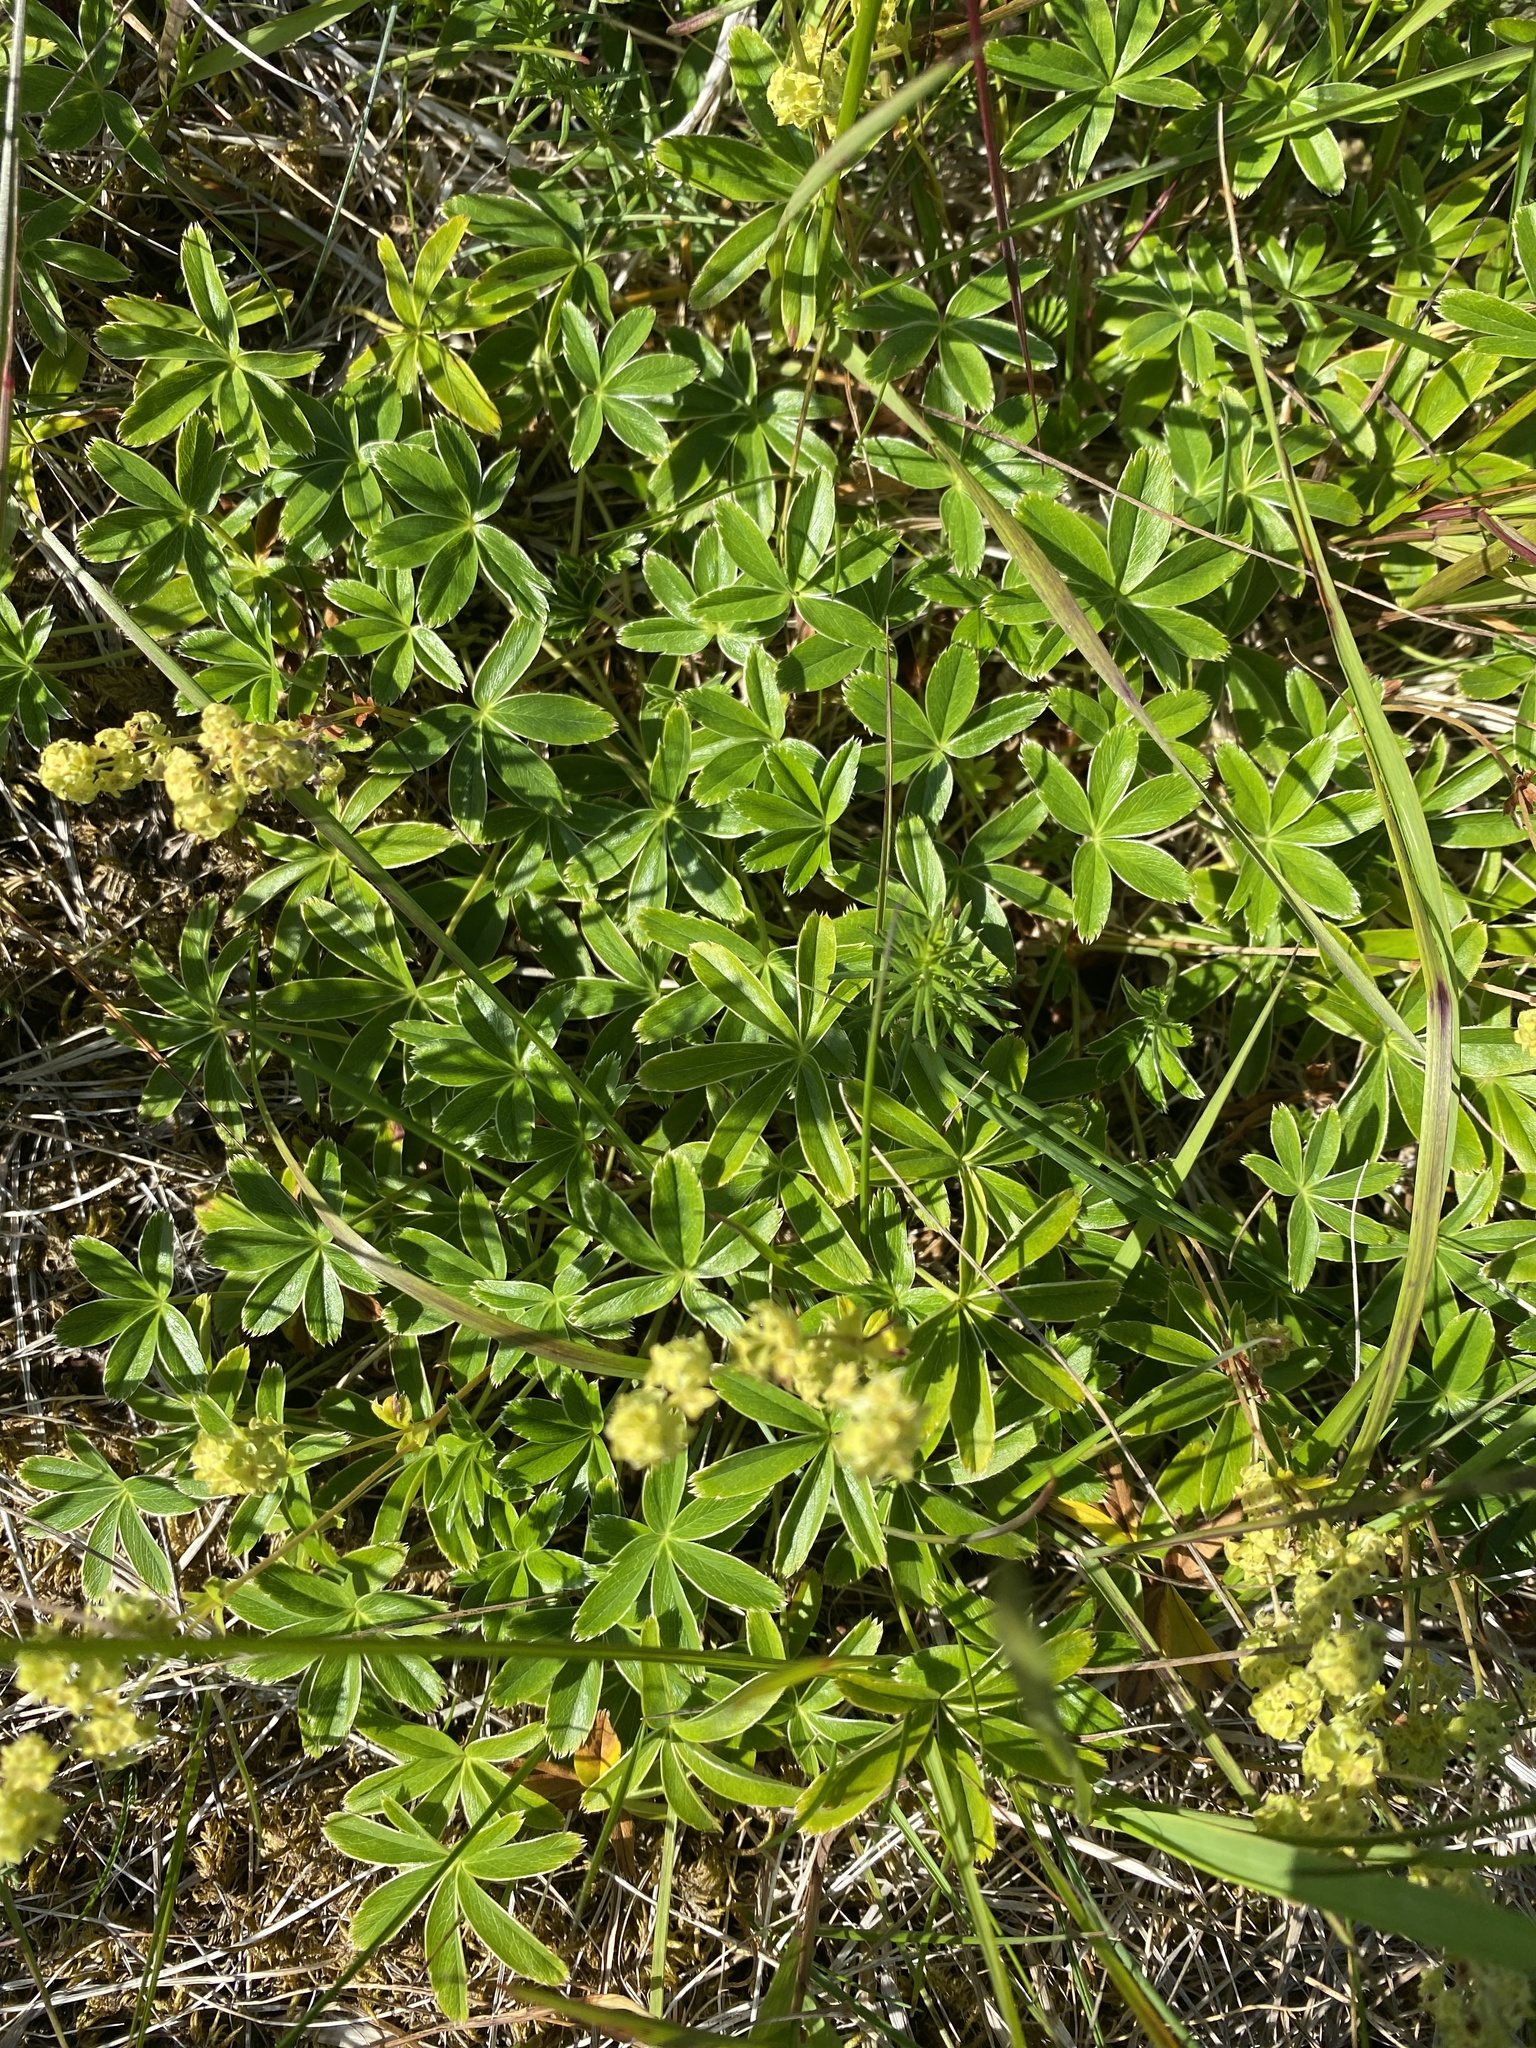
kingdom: Plantae
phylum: Tracheophyta
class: Magnoliopsida
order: Rosales
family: Rosaceae
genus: Alchemilla
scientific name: Alchemilla alpina
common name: Alpine lady's-mantle
